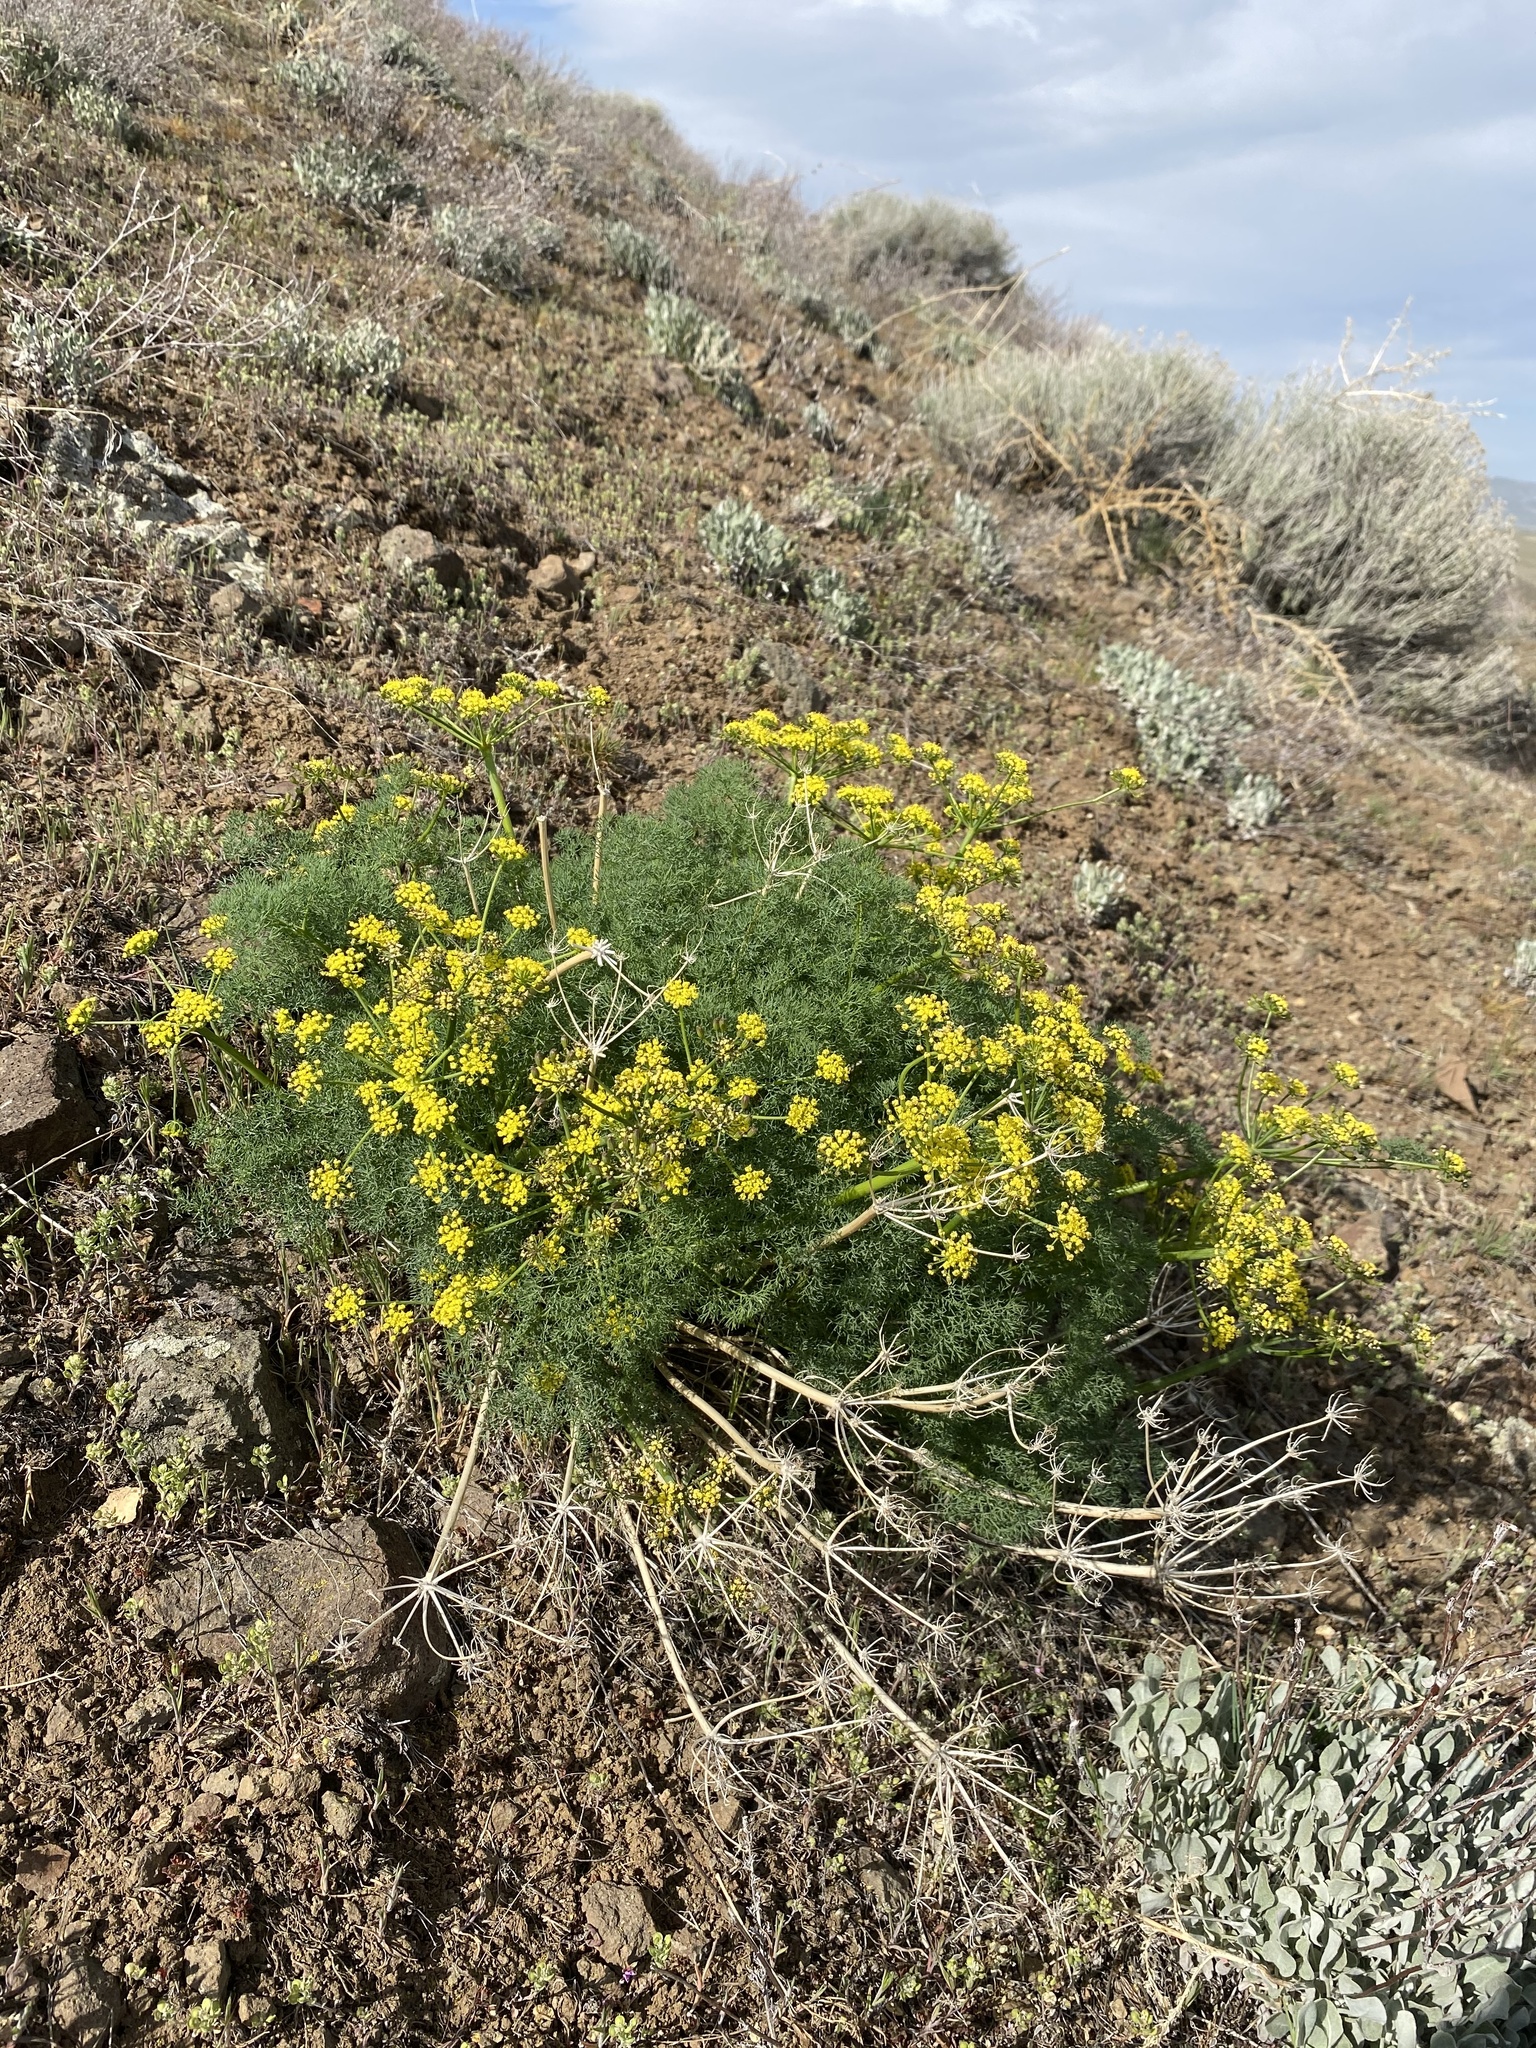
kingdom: Plantae
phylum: Tracheophyta
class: Magnoliopsida
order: Apiales
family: Apiaceae
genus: Lomatium
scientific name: Lomatium papilioniferum
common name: Butterfly lomatium
